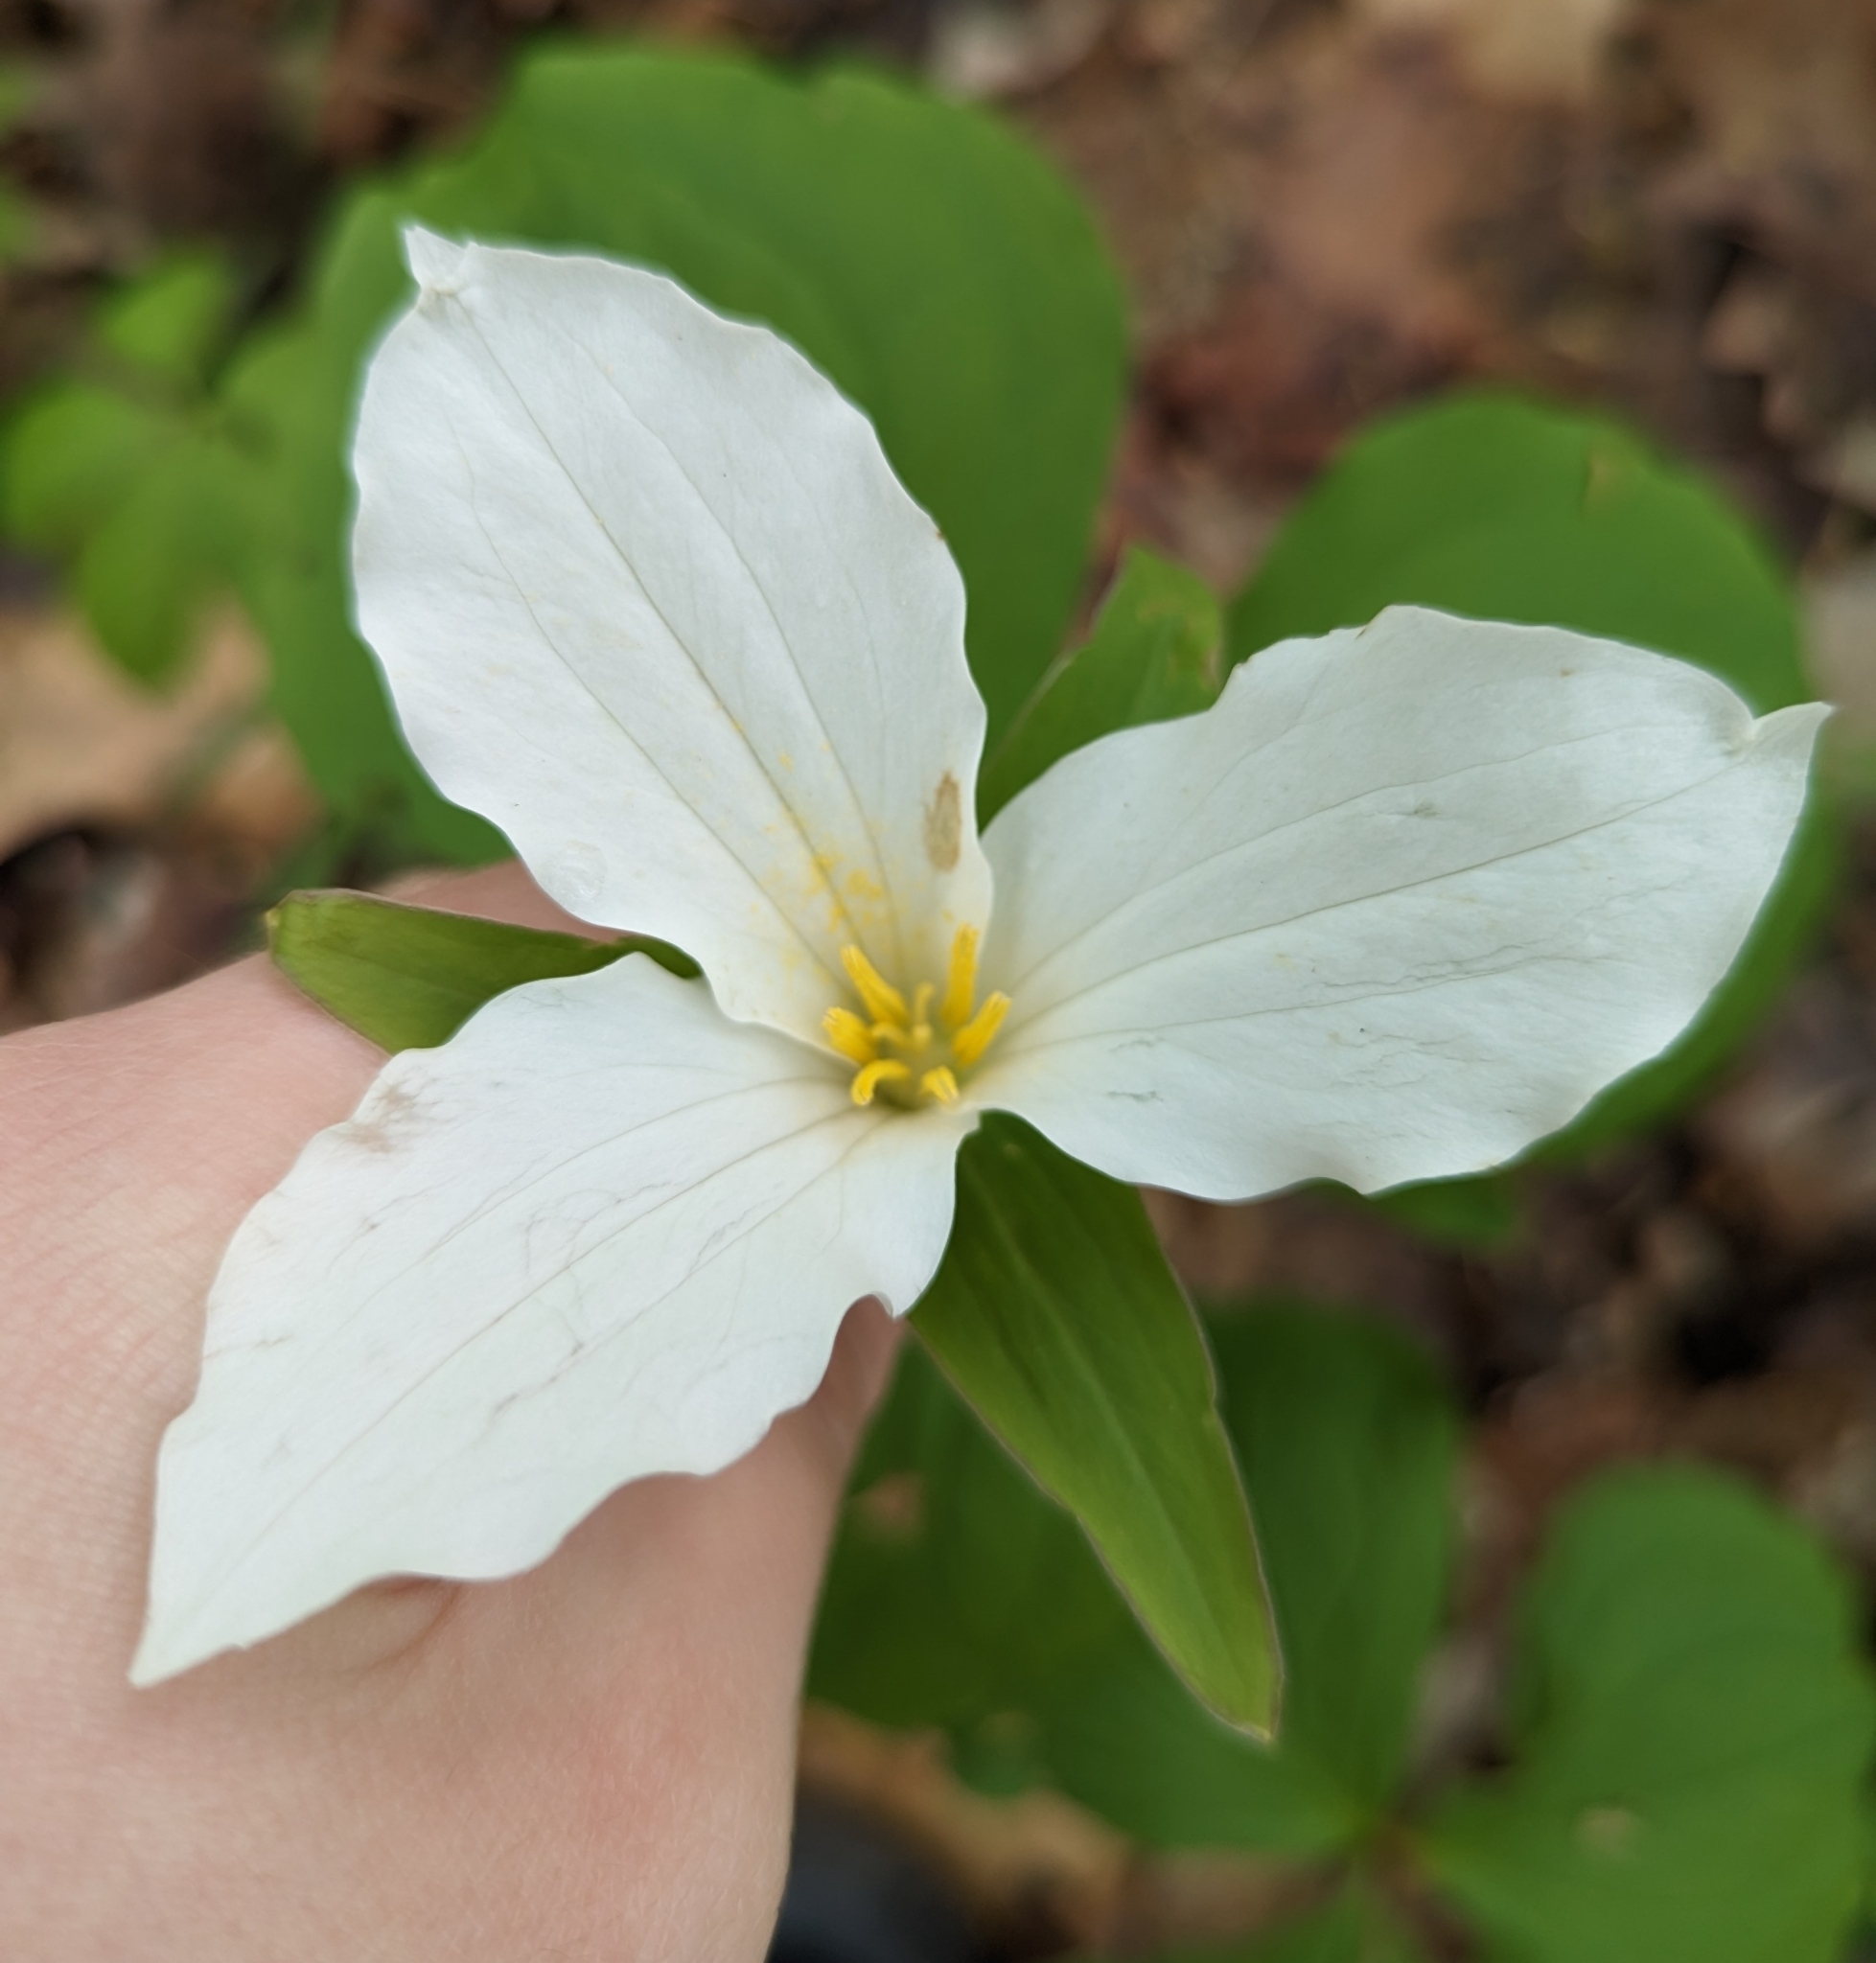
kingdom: Plantae
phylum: Tracheophyta
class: Liliopsida
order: Liliales
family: Melanthiaceae
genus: Trillium
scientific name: Trillium grandiflorum
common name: Great white trillium
